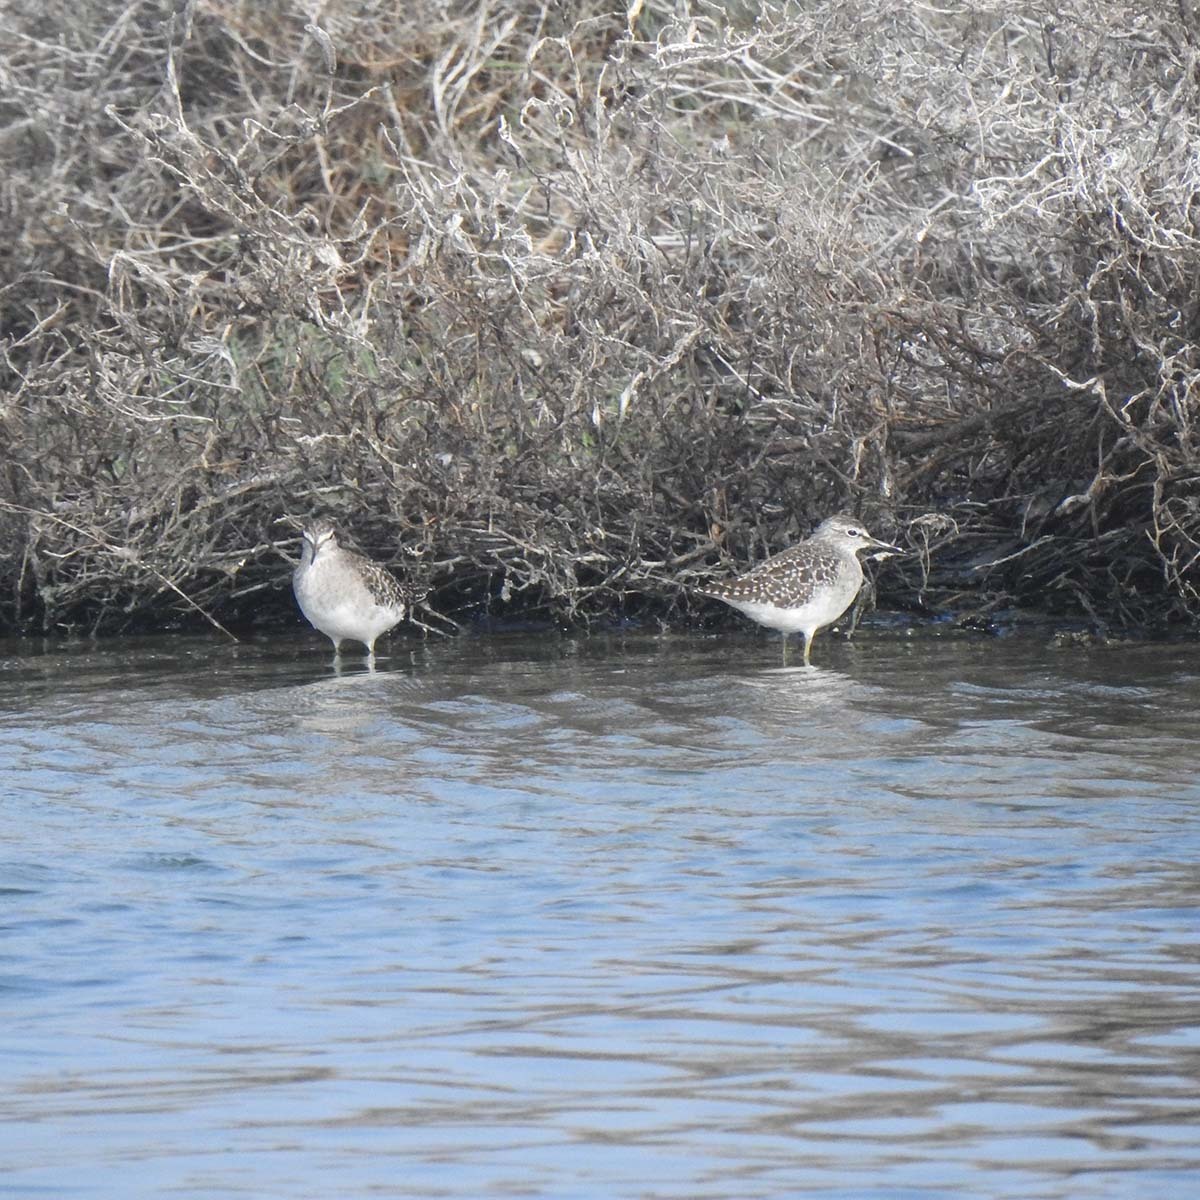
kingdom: Animalia
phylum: Chordata
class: Aves
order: Charadriiformes
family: Scolopacidae
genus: Tringa
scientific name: Tringa glareola
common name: Wood sandpiper
